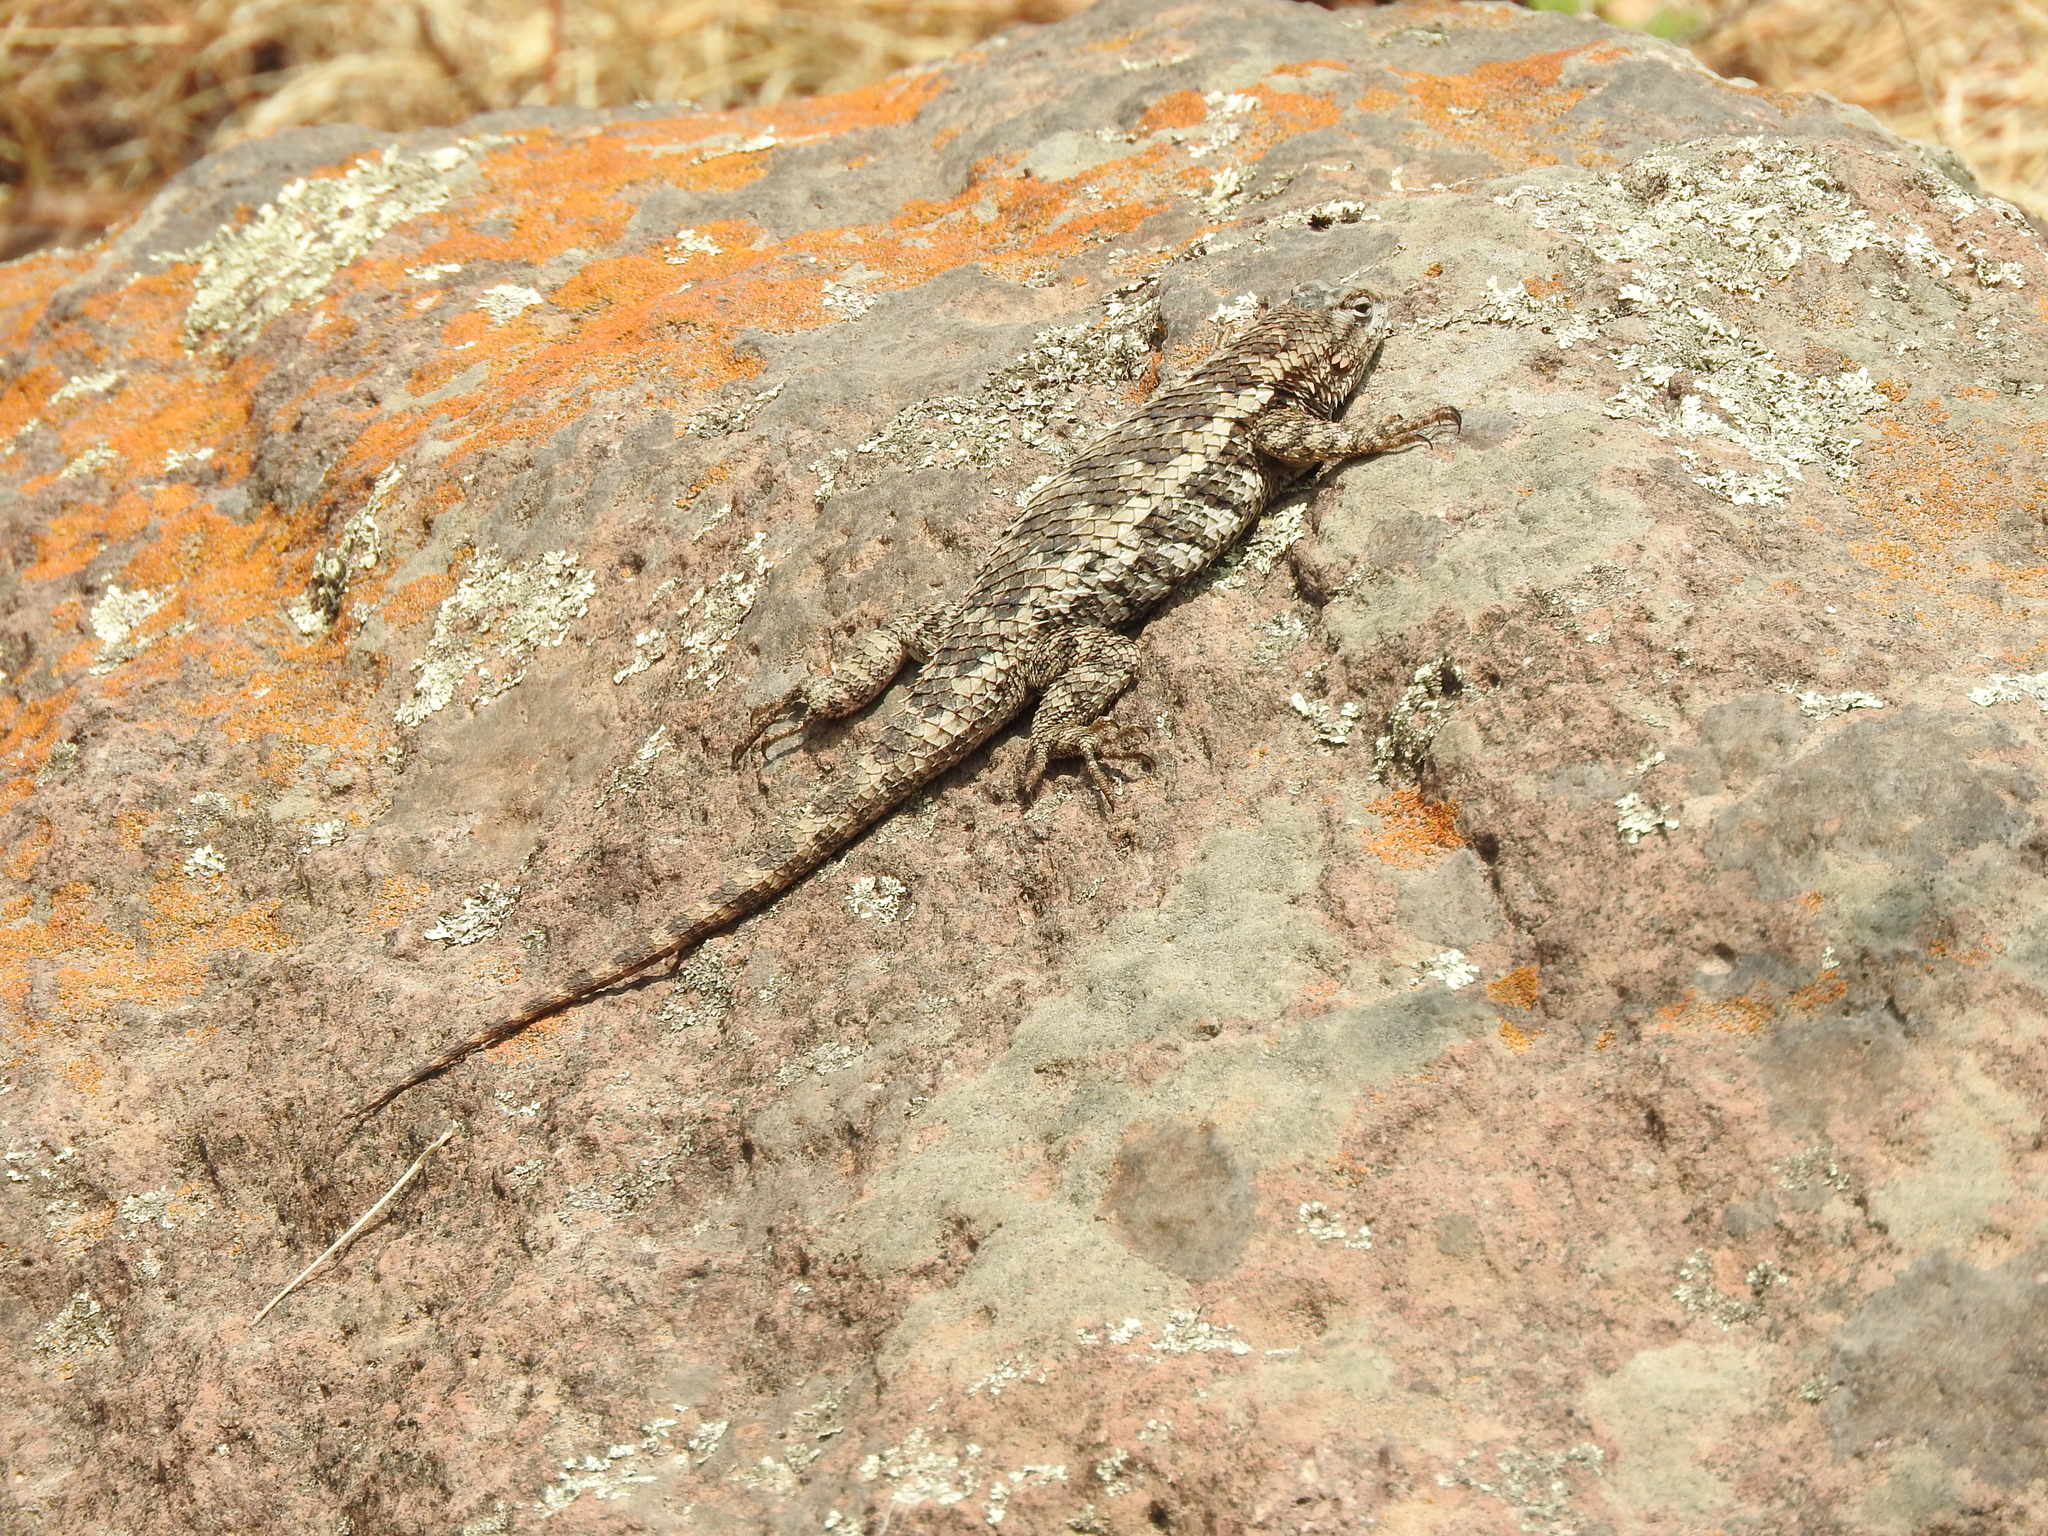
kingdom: Animalia
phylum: Chordata
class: Squamata
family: Phrynosomatidae
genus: Sceloporus
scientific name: Sceloporus spinosus
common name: Blue-spotted spiny lizard [caeruleopunctatus]
